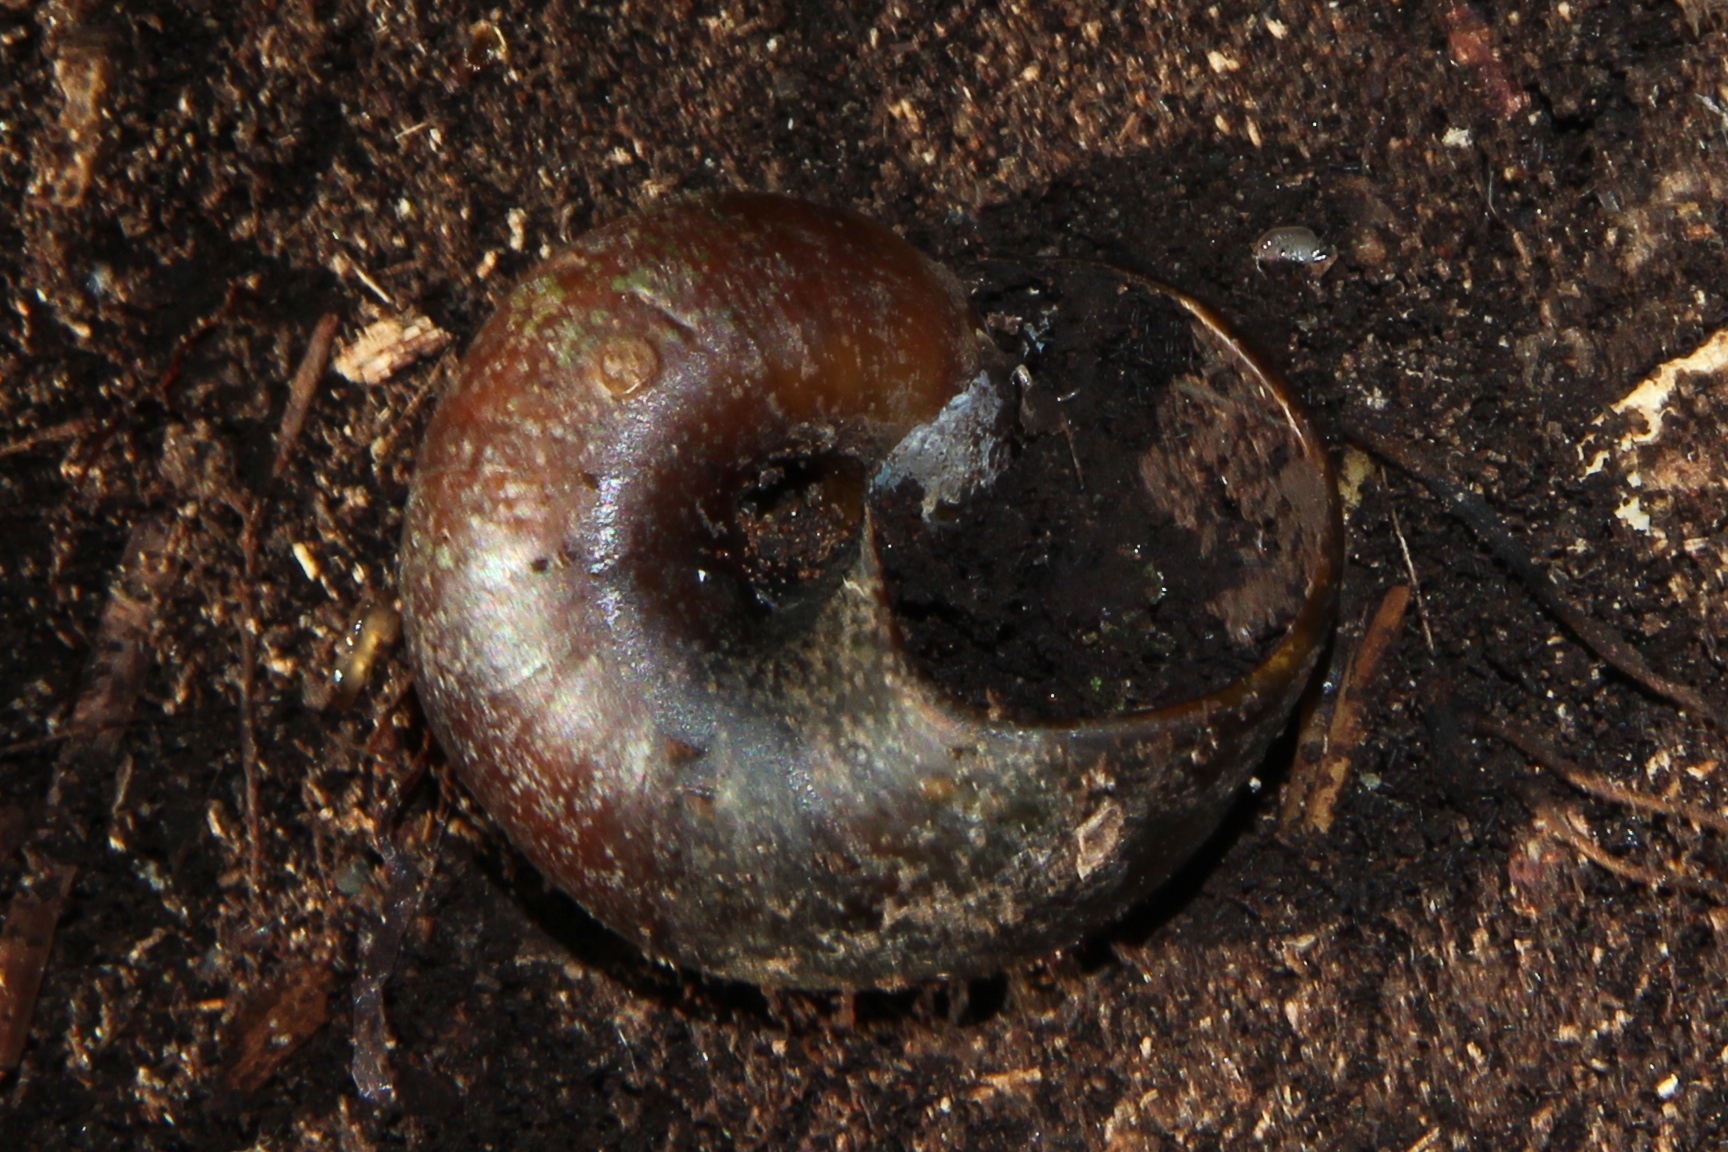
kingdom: Animalia
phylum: Mollusca
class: Gastropoda
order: Stylommatophora
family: Rhytididae
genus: Paryphanta
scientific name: Paryphanta busbyi
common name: Kauri snail
